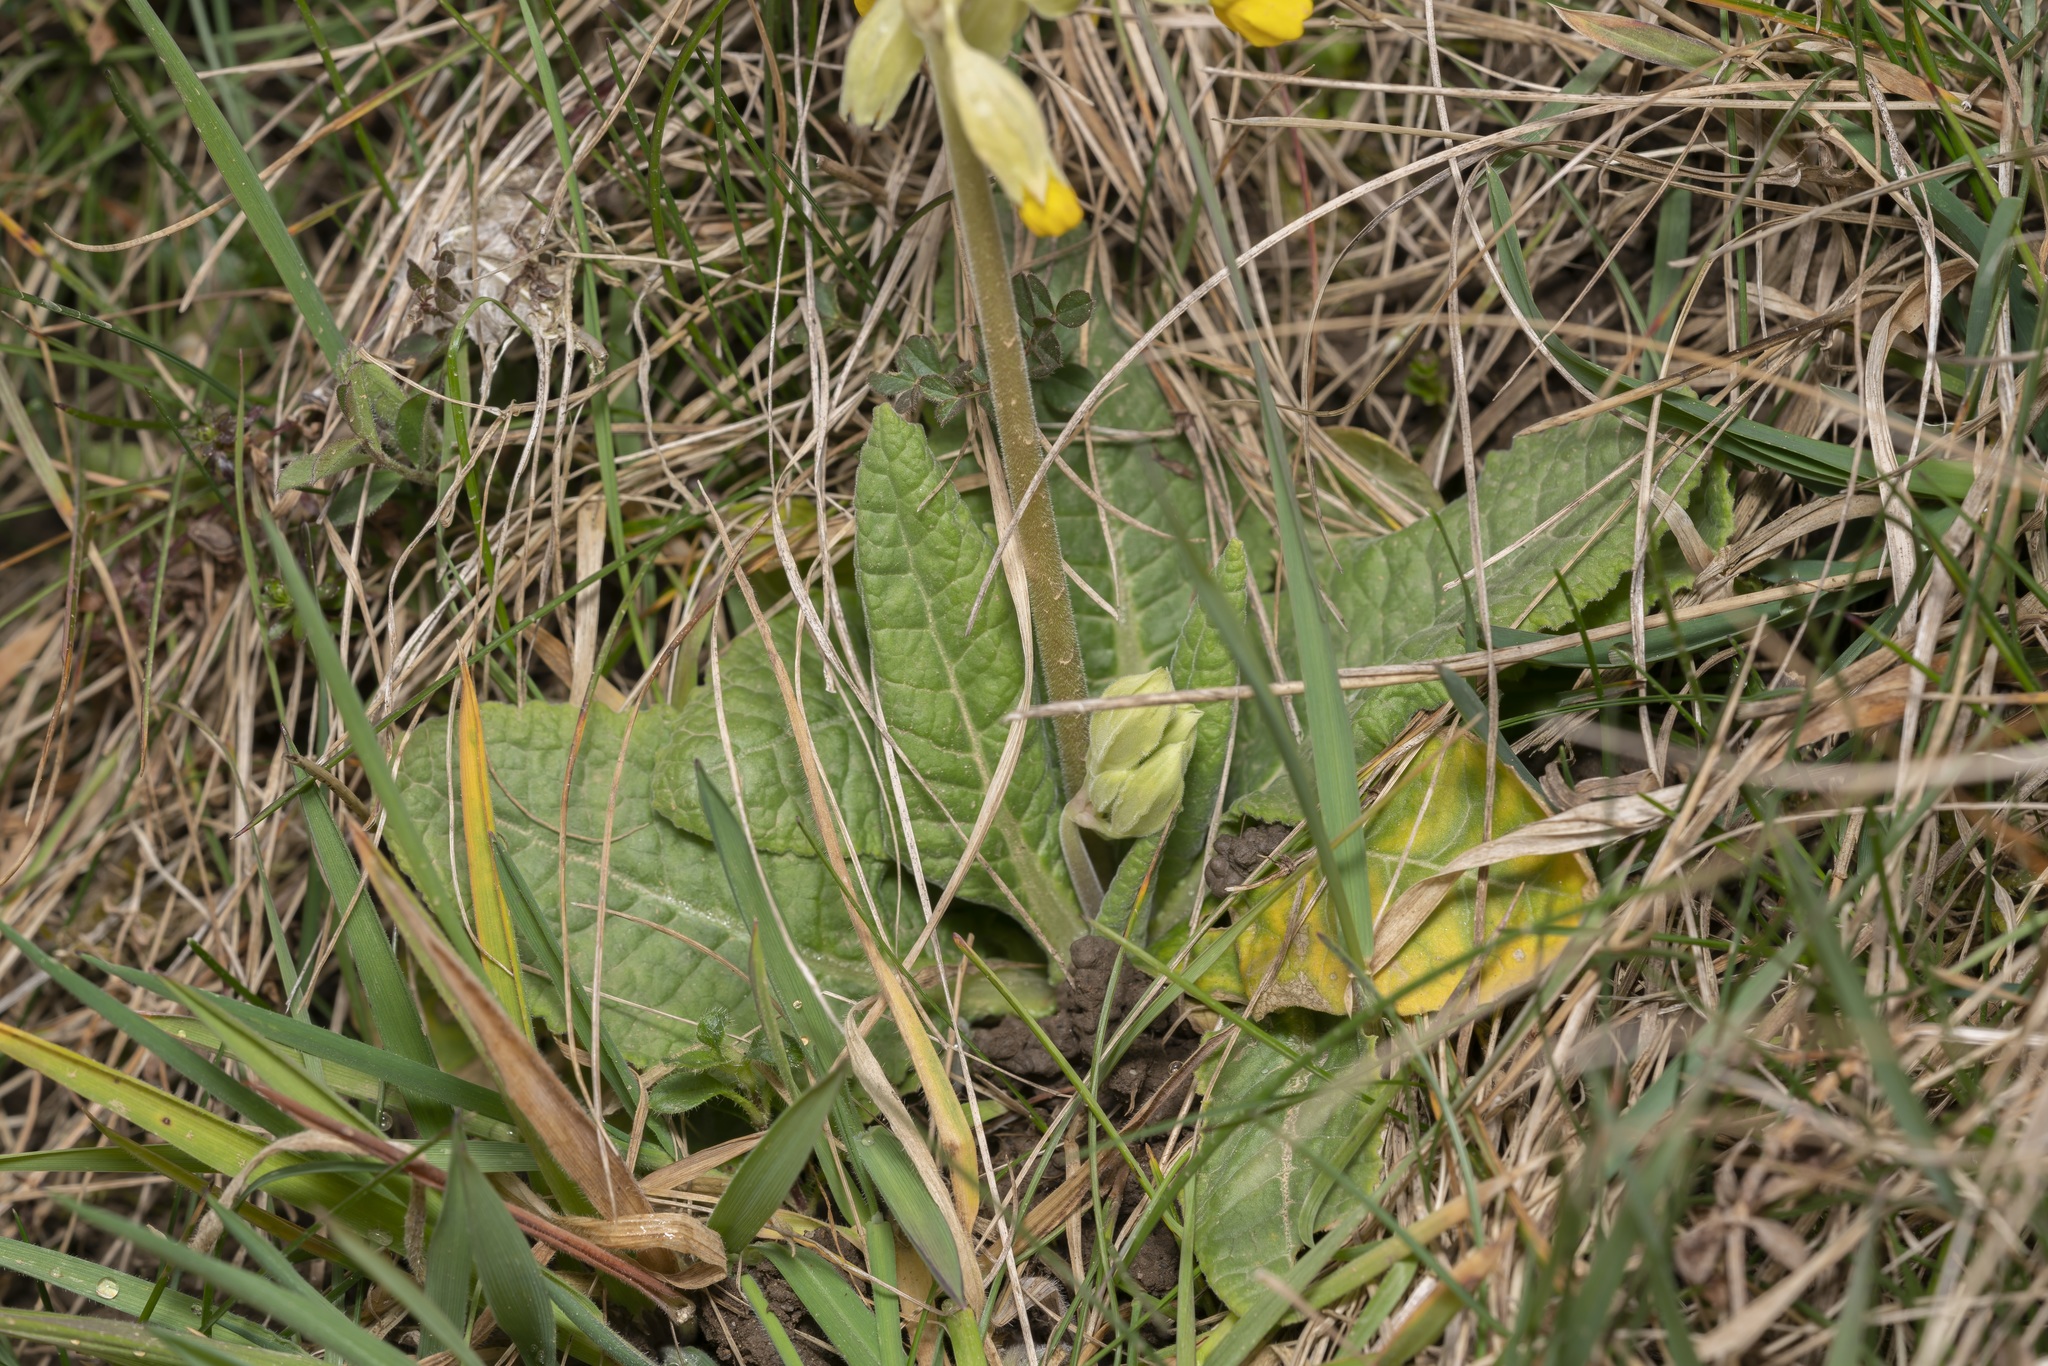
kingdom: Plantae
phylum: Tracheophyta
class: Magnoliopsida
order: Ericales
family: Primulaceae
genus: Primula
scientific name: Primula veris
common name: Cowslip
